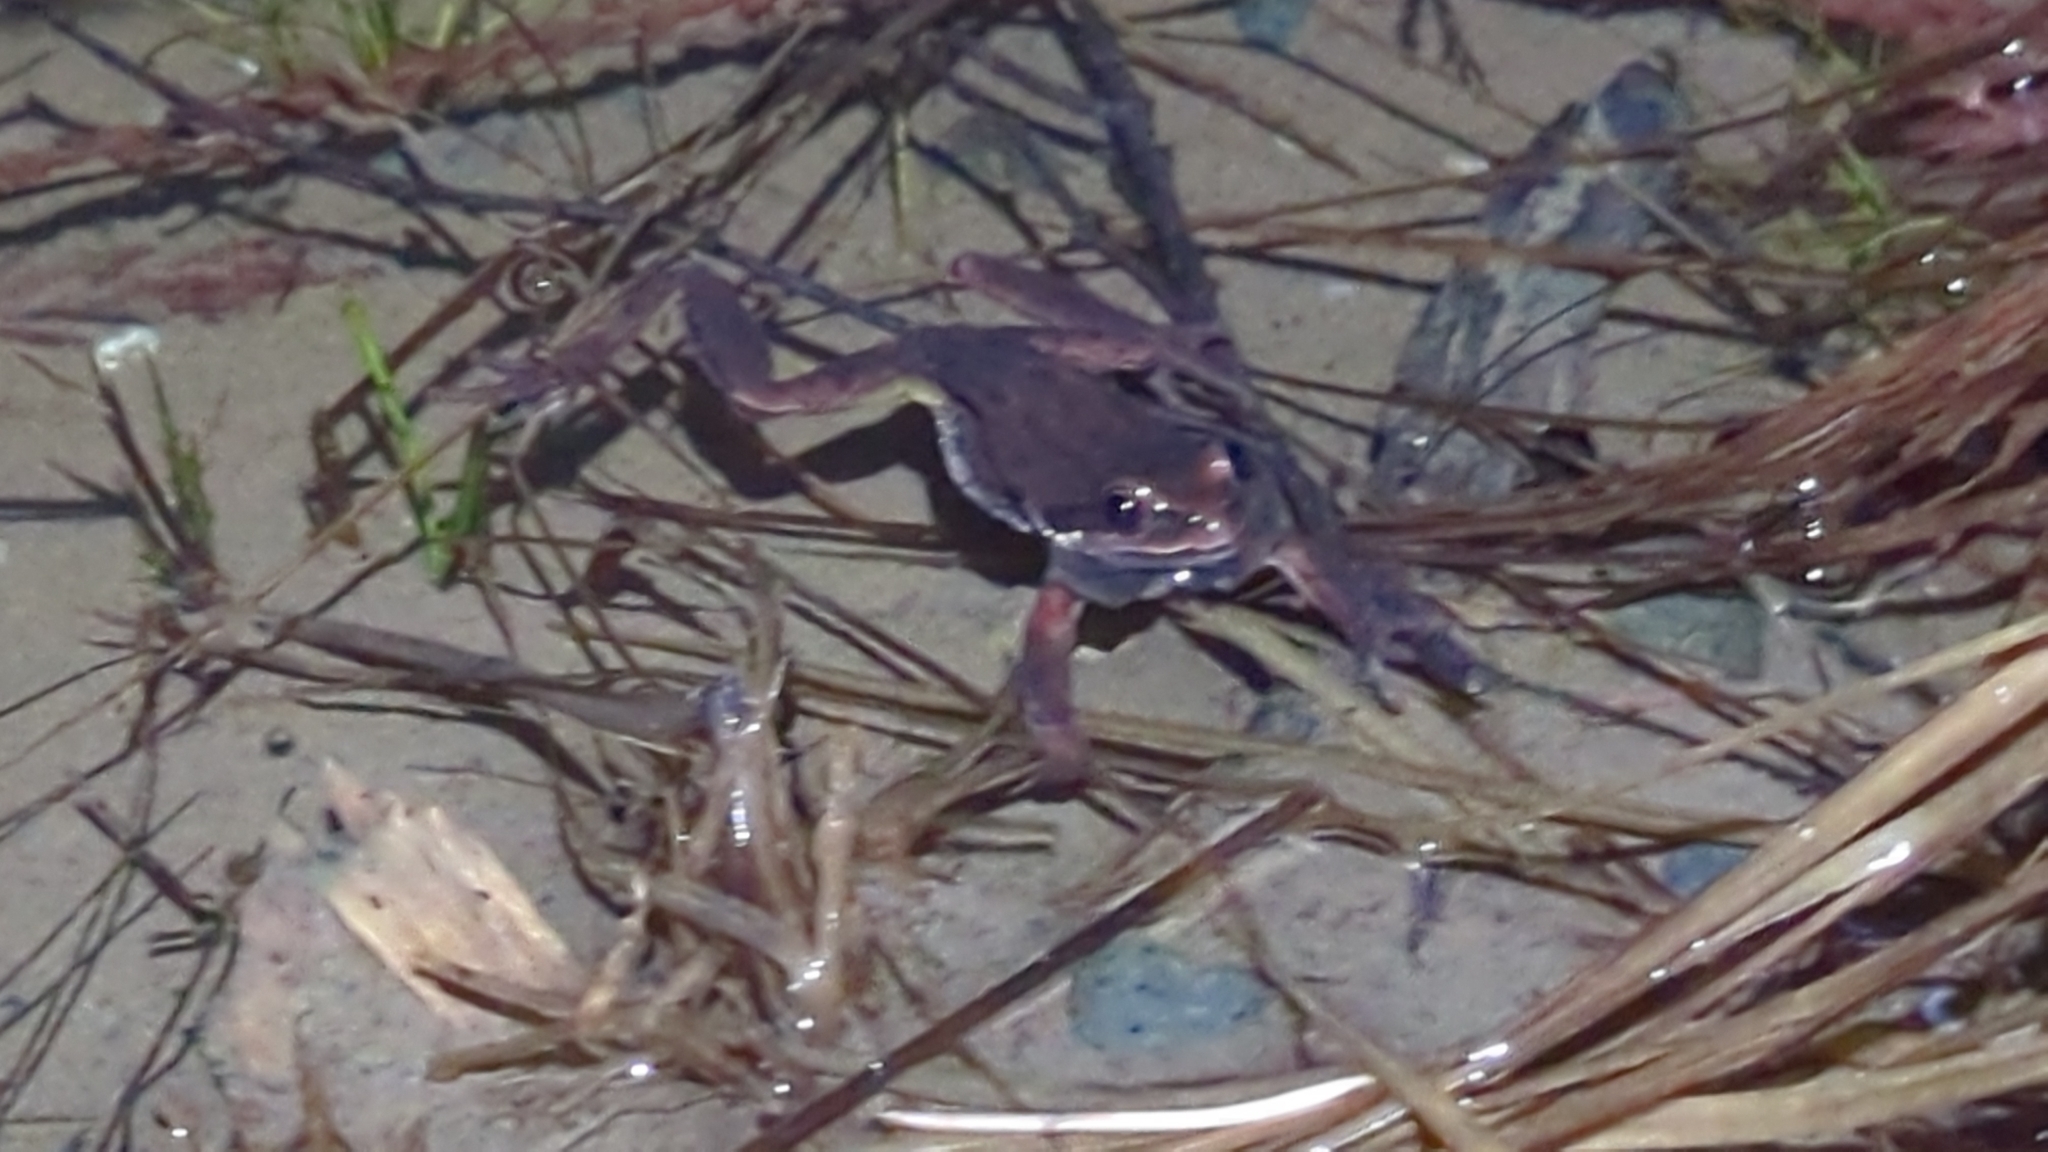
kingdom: Animalia
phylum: Chordata
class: Amphibia
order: Anura
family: Hylidae
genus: Pseudacris
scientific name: Pseudacris regilla
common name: Pacific chorus frog
